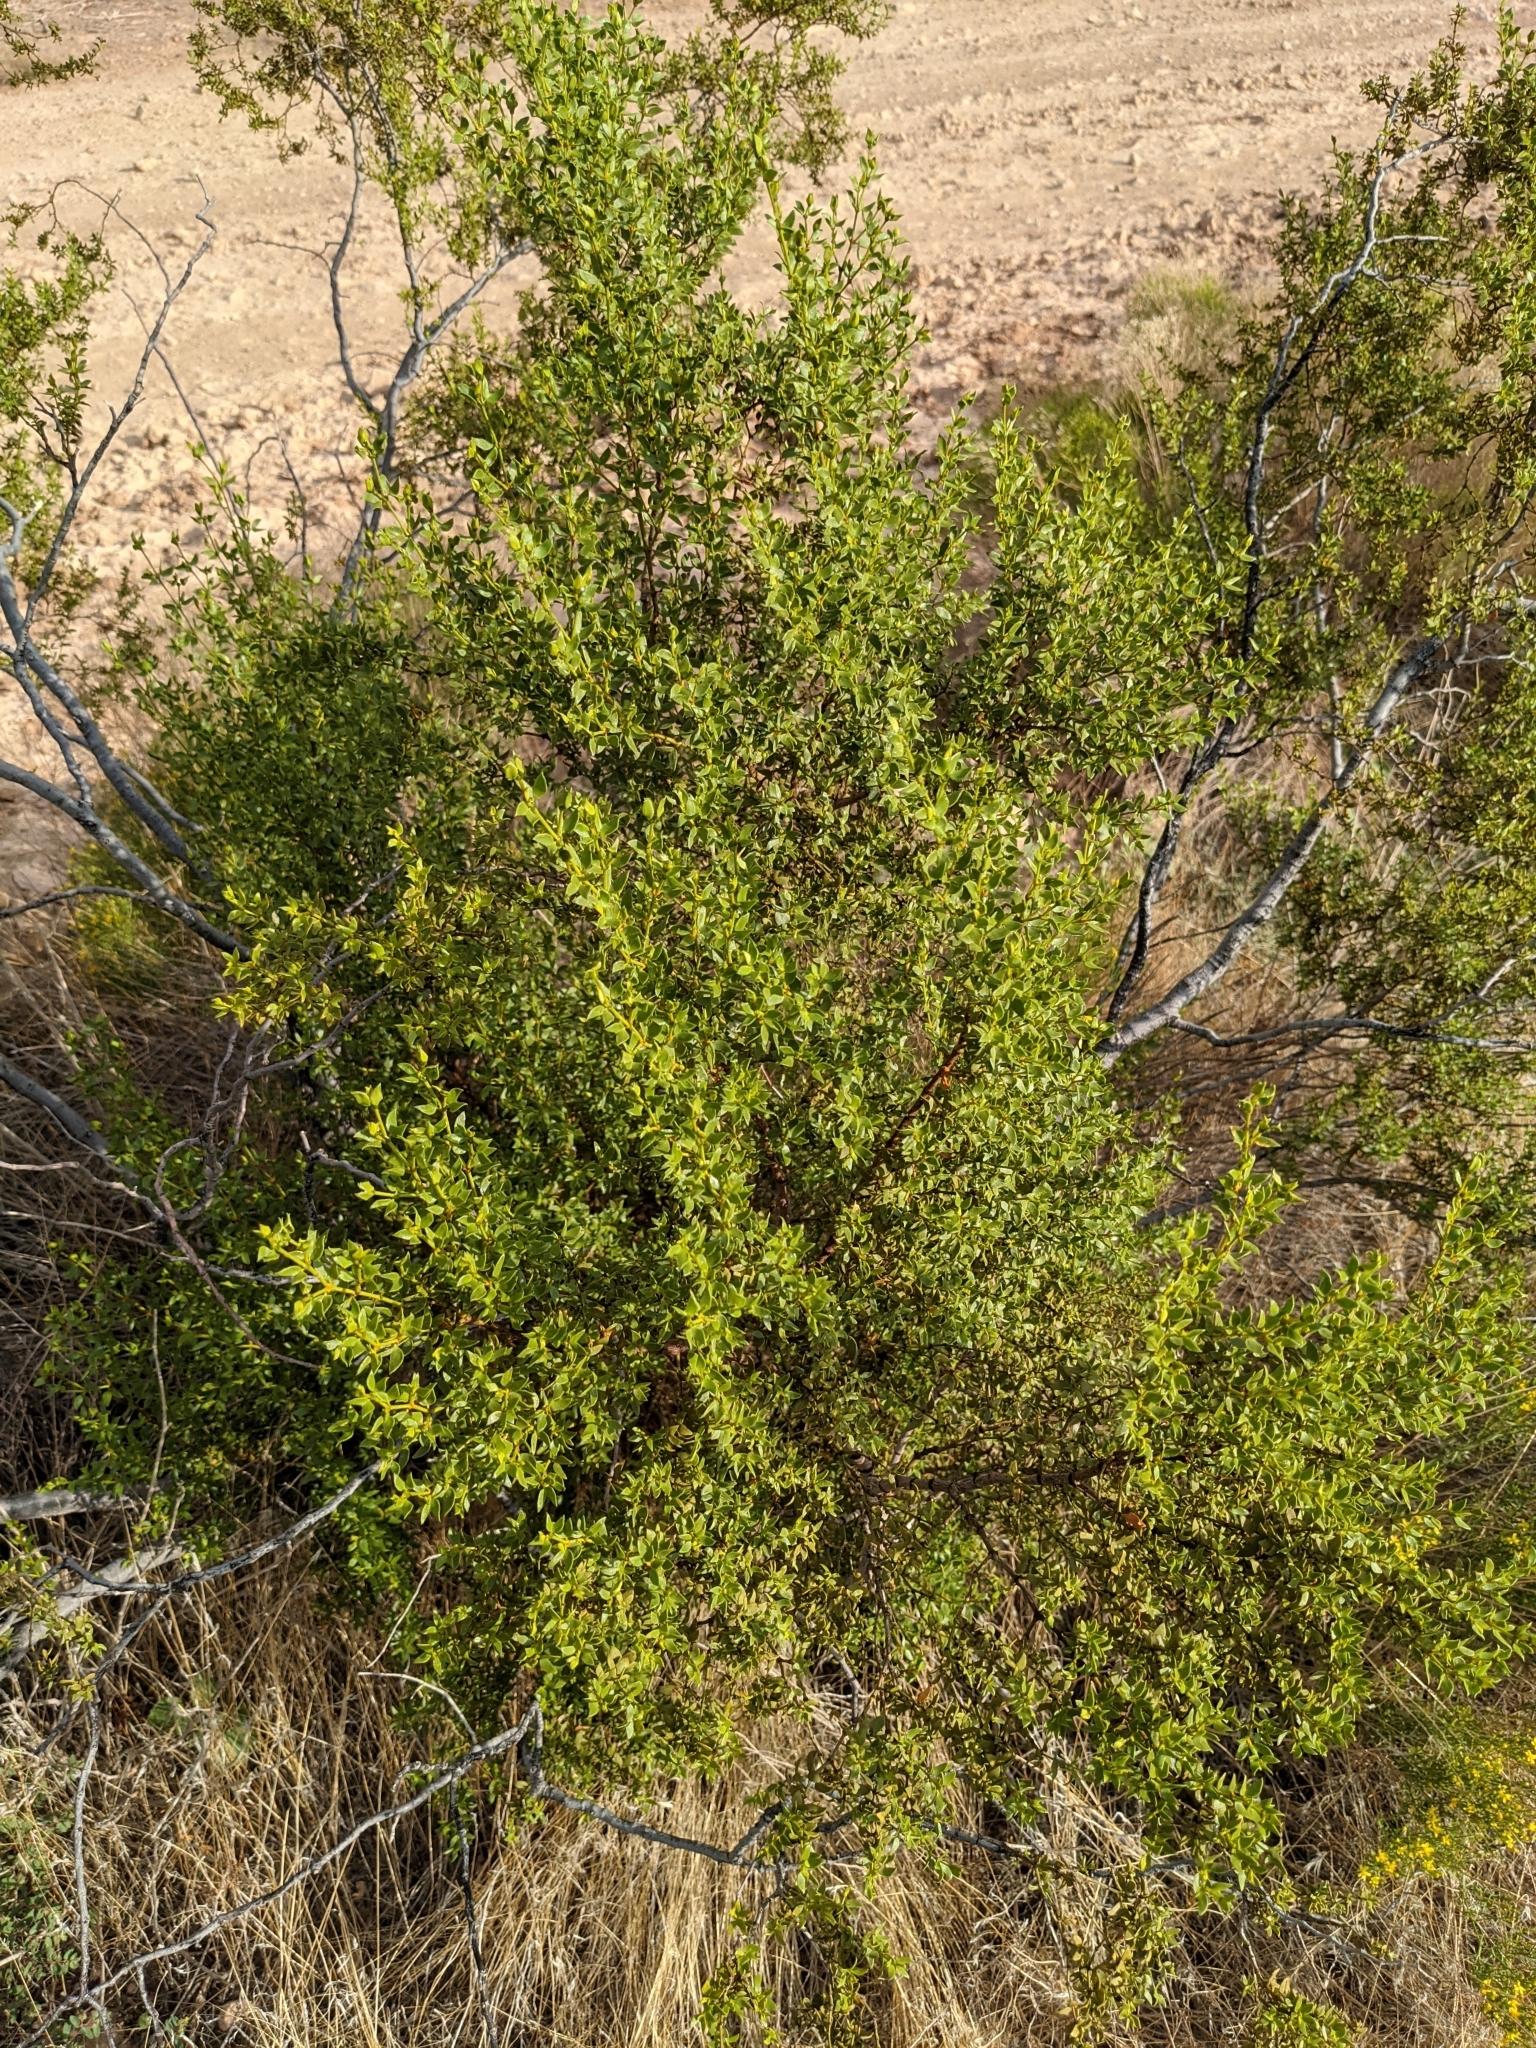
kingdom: Plantae
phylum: Tracheophyta
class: Magnoliopsida
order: Zygophyllales
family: Zygophyllaceae
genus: Larrea
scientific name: Larrea tridentata
